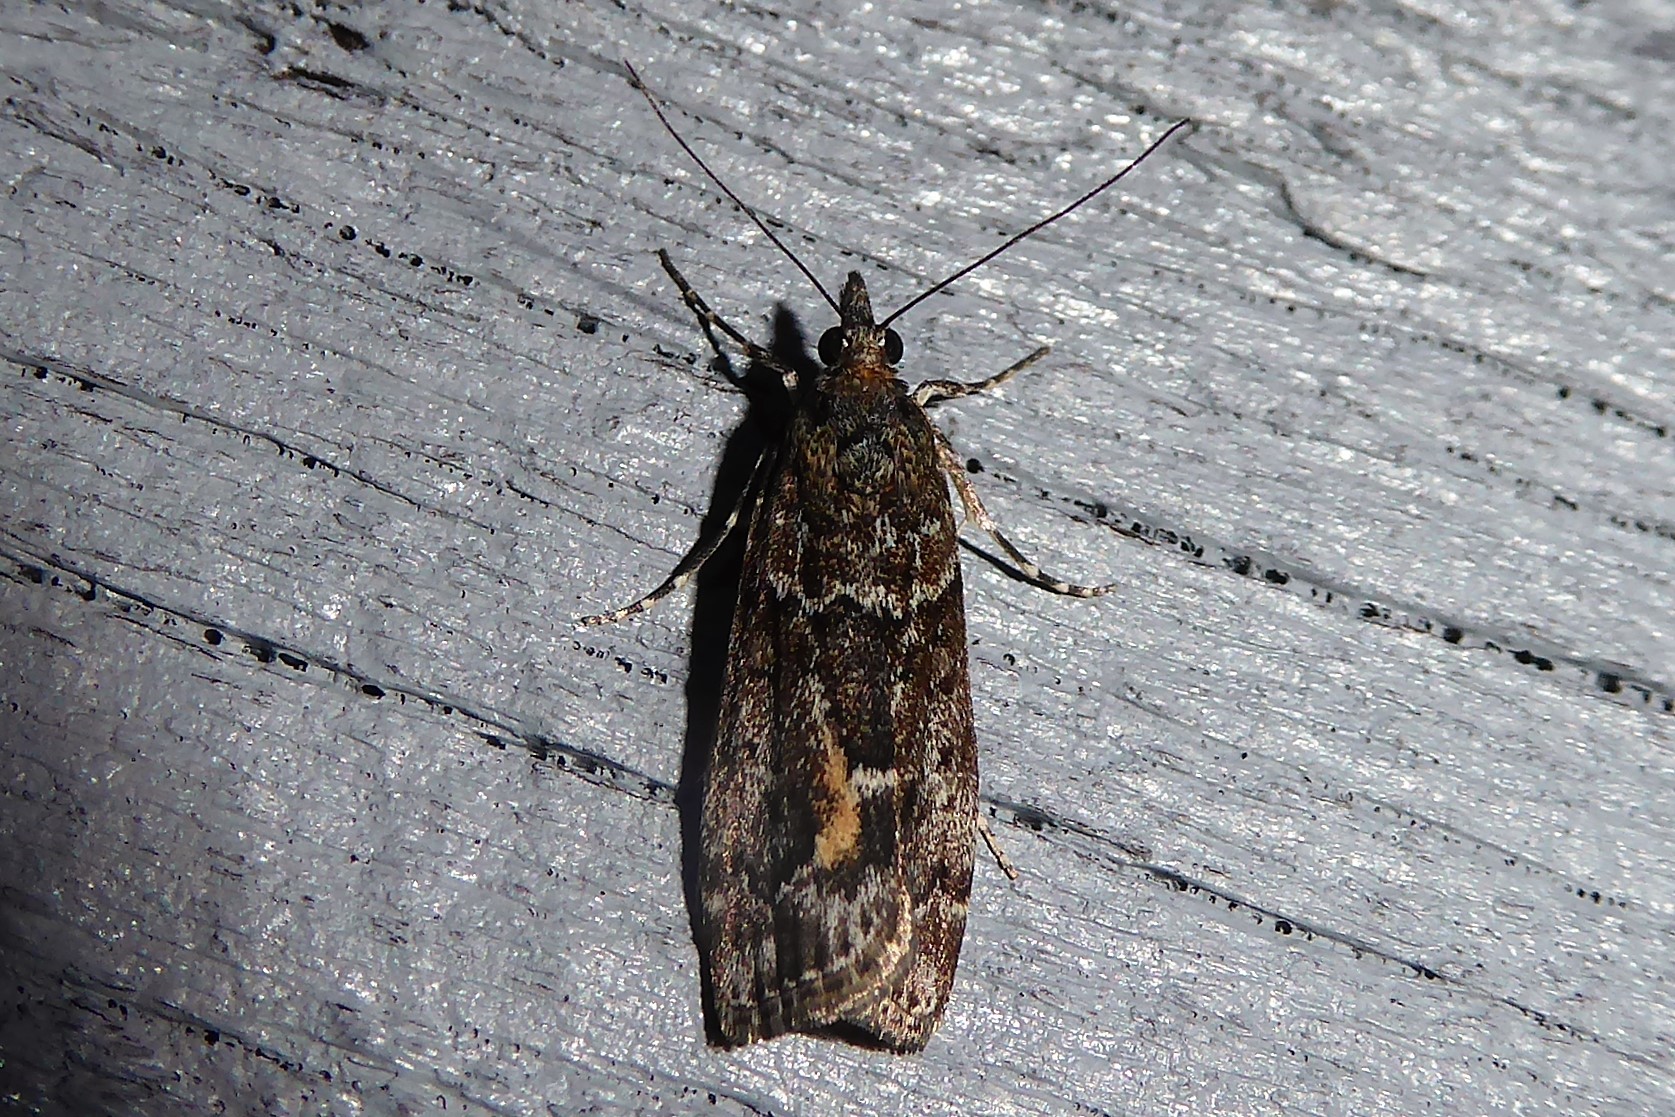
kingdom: Animalia
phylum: Arthropoda
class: Insecta
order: Lepidoptera
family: Crambidae
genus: Eudonia
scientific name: Eudonia submarginalis
